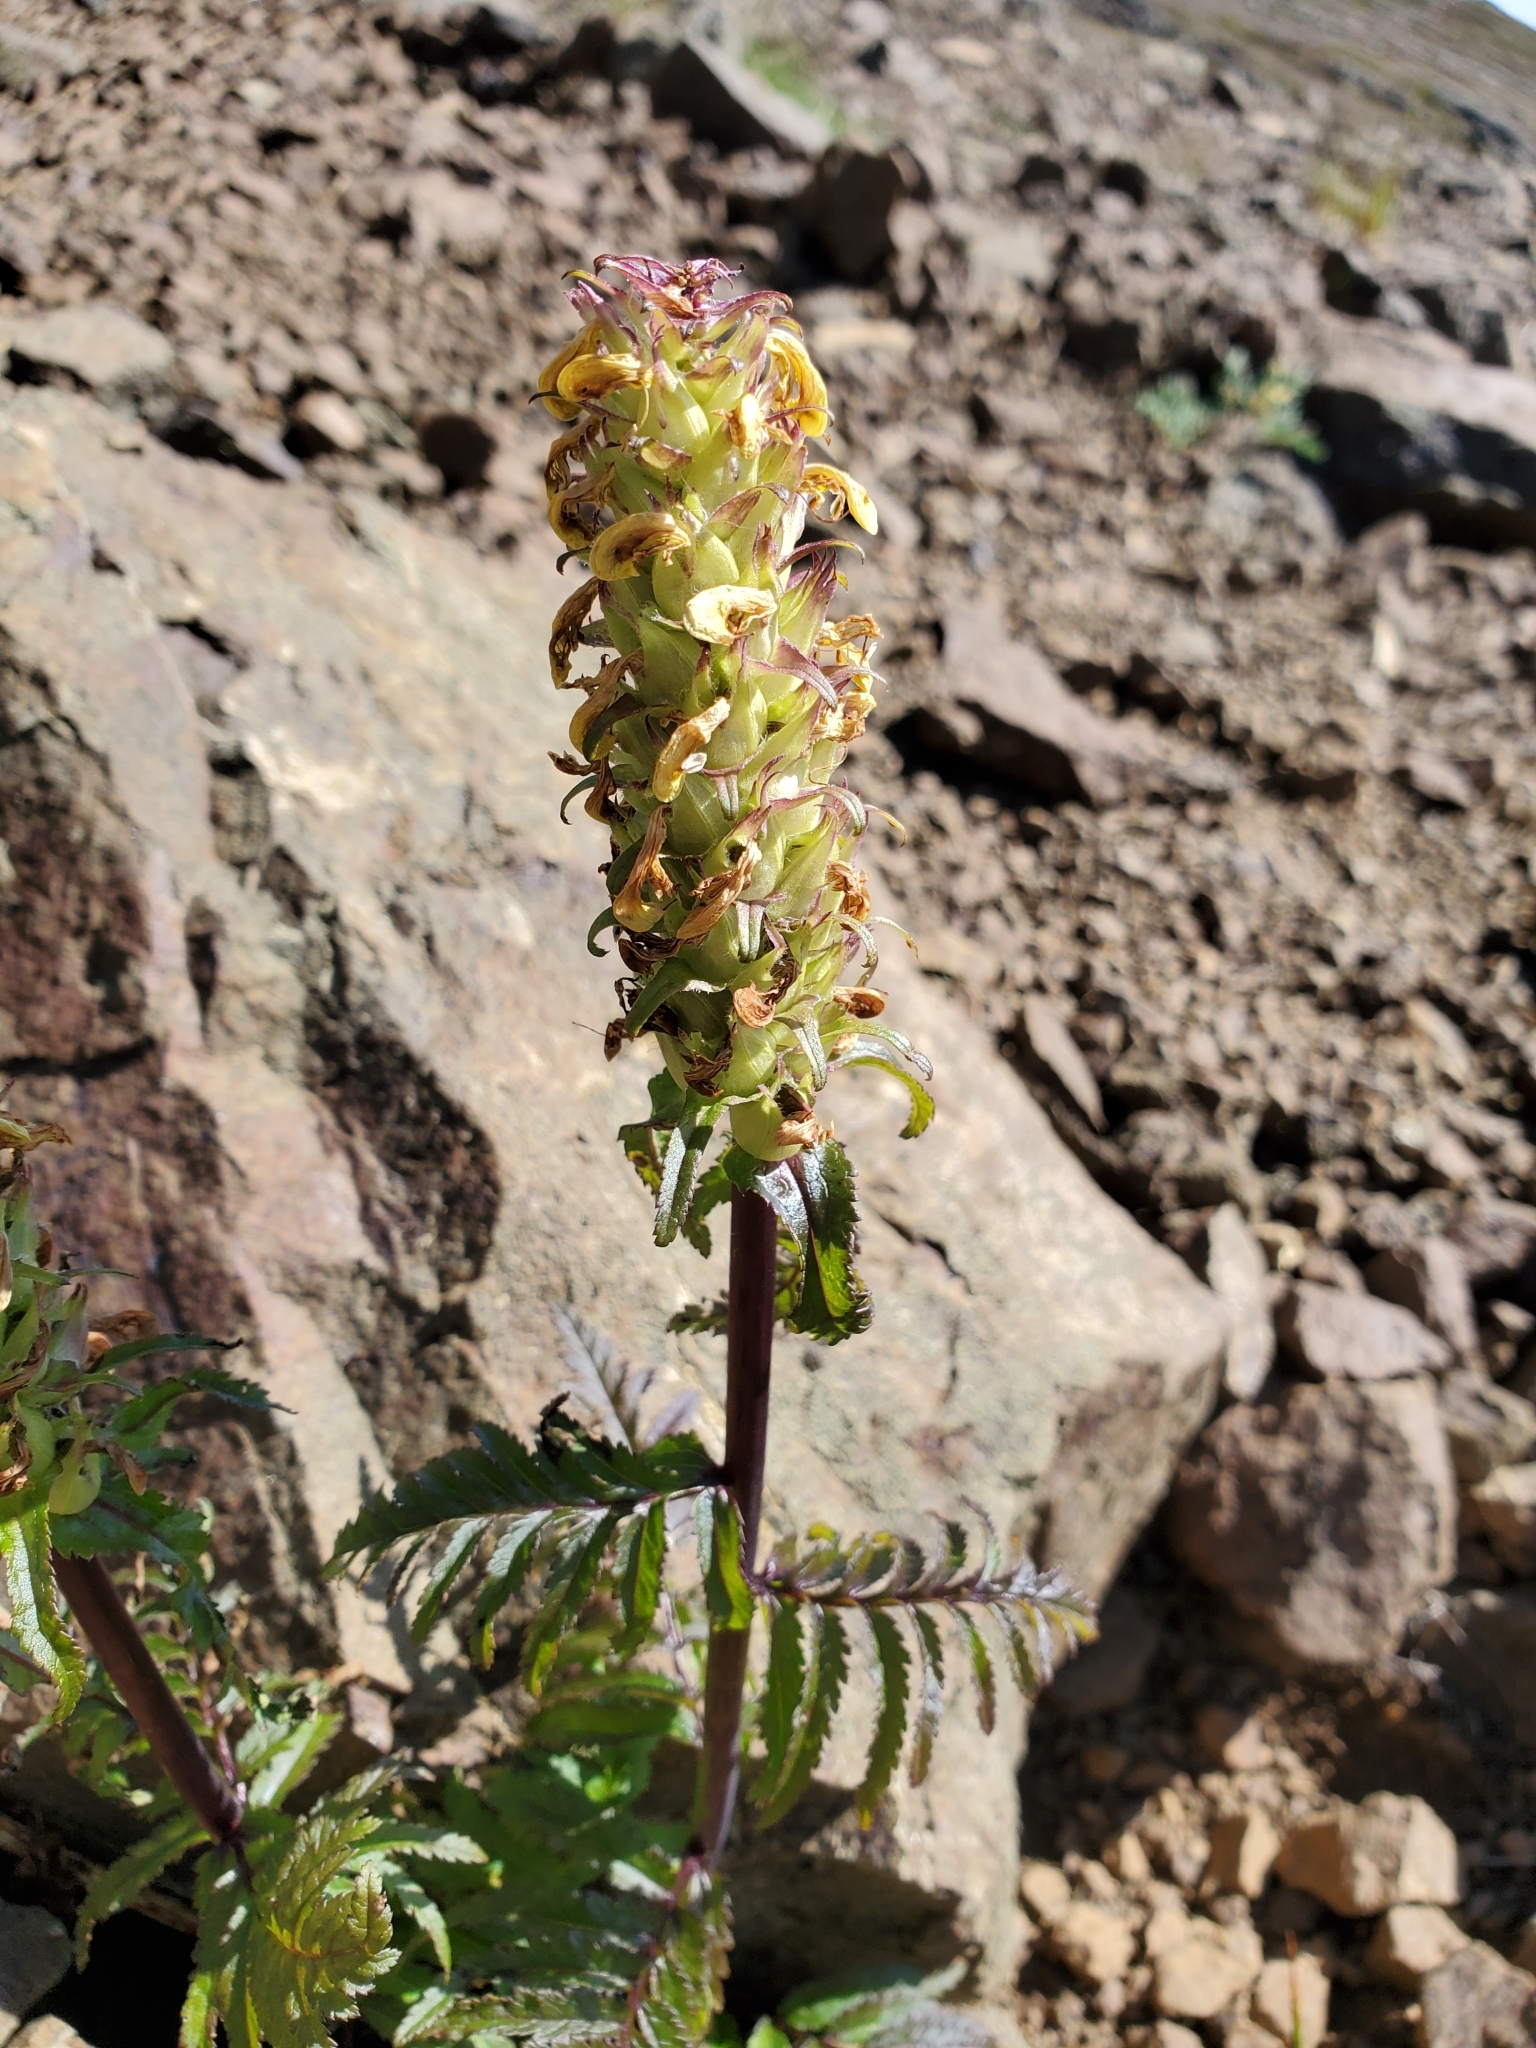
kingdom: Plantae
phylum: Tracheophyta
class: Magnoliopsida
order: Lamiales
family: Orobanchaceae
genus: Pedicularis
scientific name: Pedicularis bracteosa
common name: Bracted lousewort
